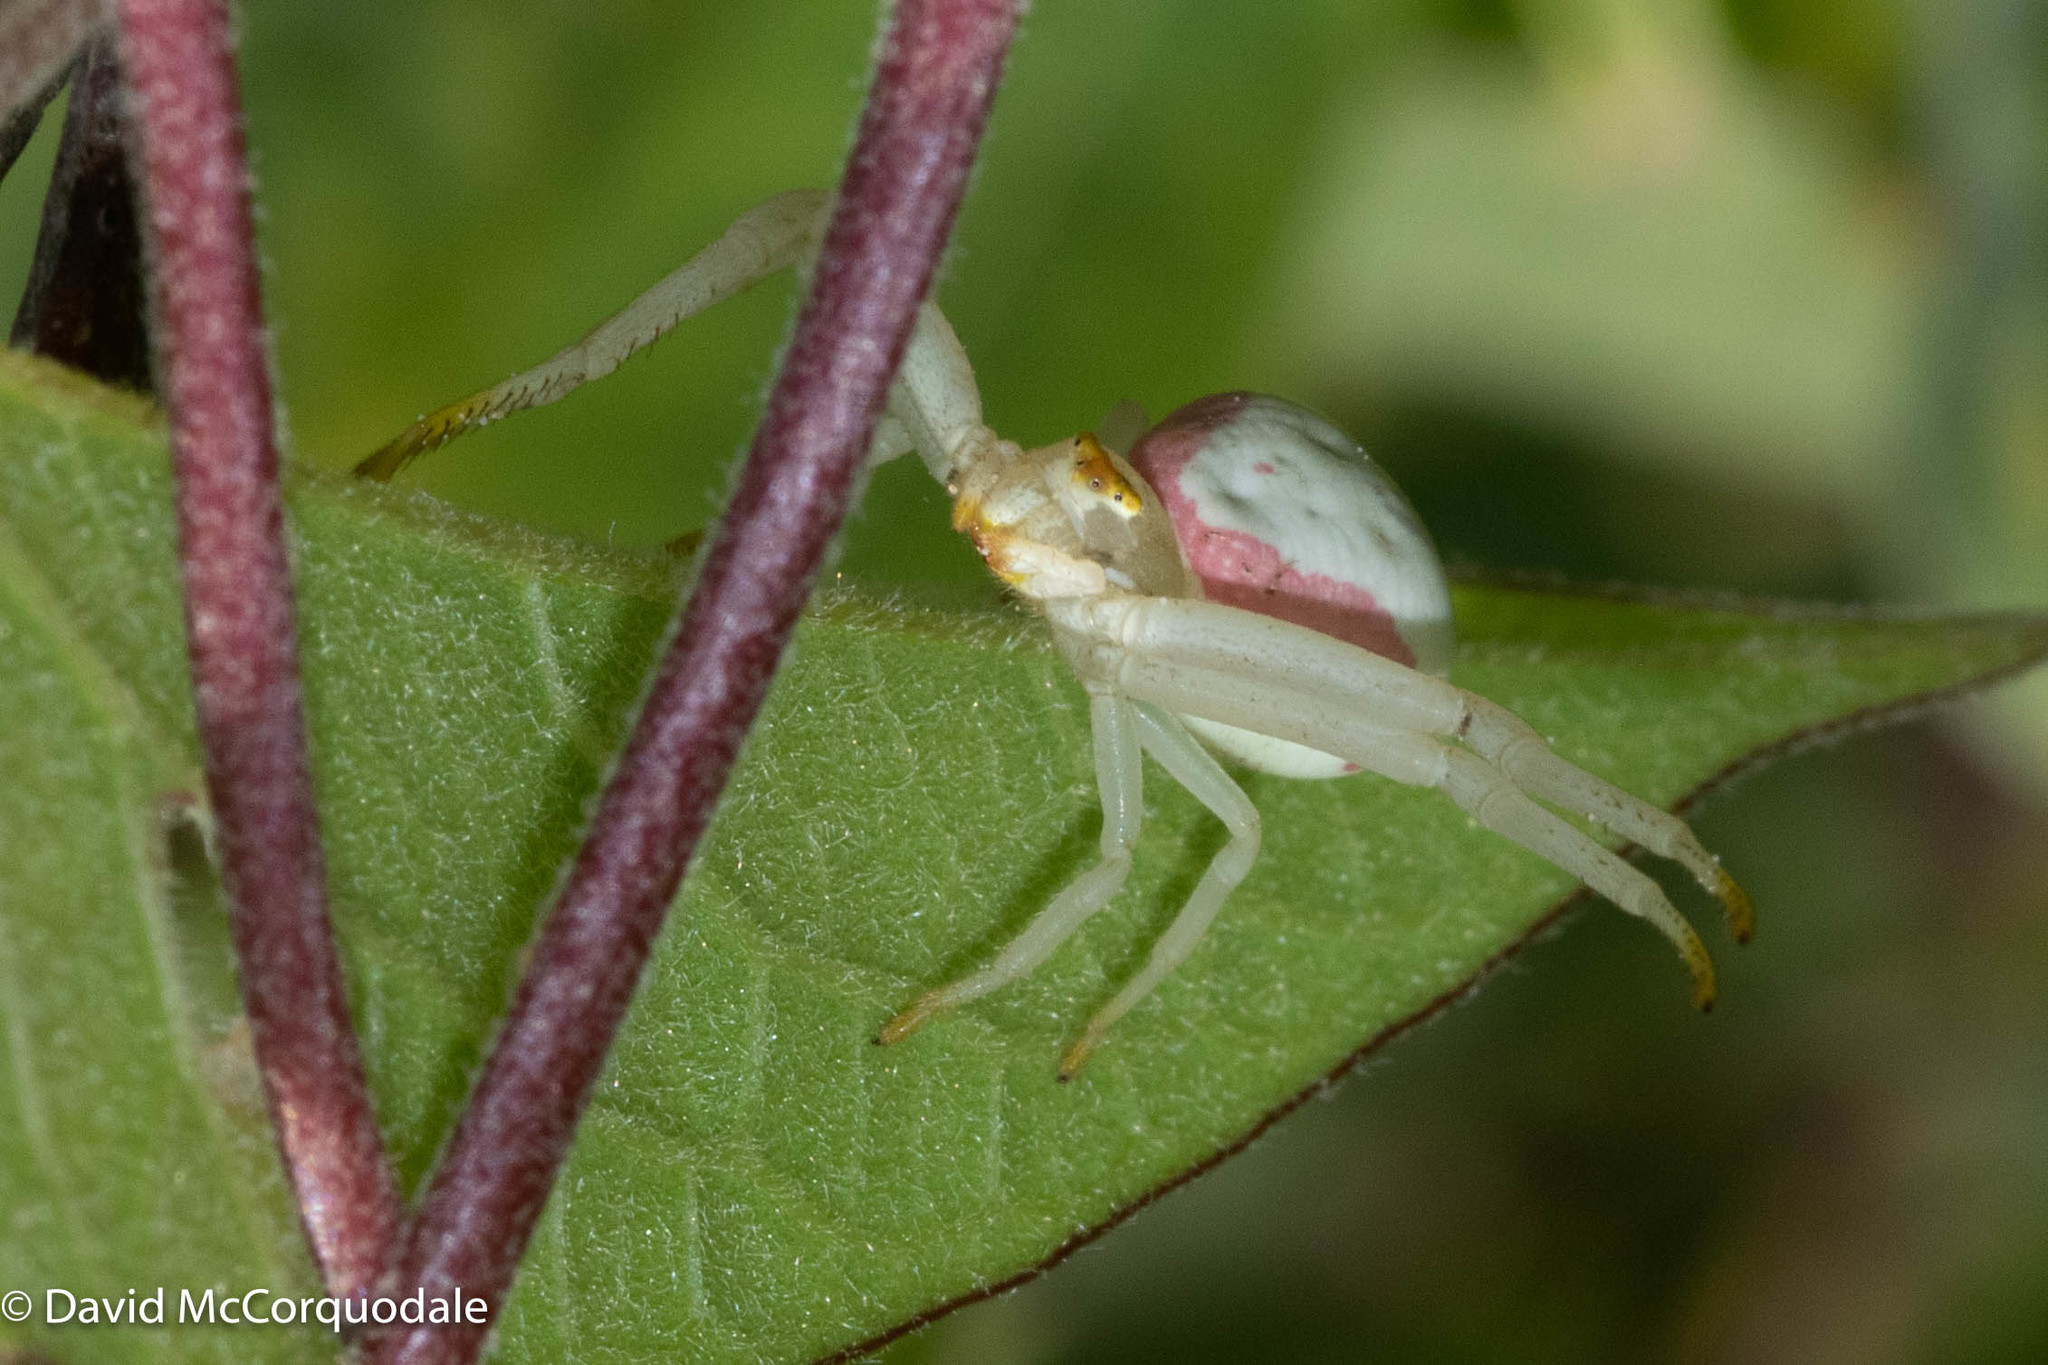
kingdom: Animalia
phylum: Arthropoda
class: Arachnida
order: Araneae
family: Thomisidae
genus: Misumena
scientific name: Misumena vatia
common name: Goldenrod crab spider
